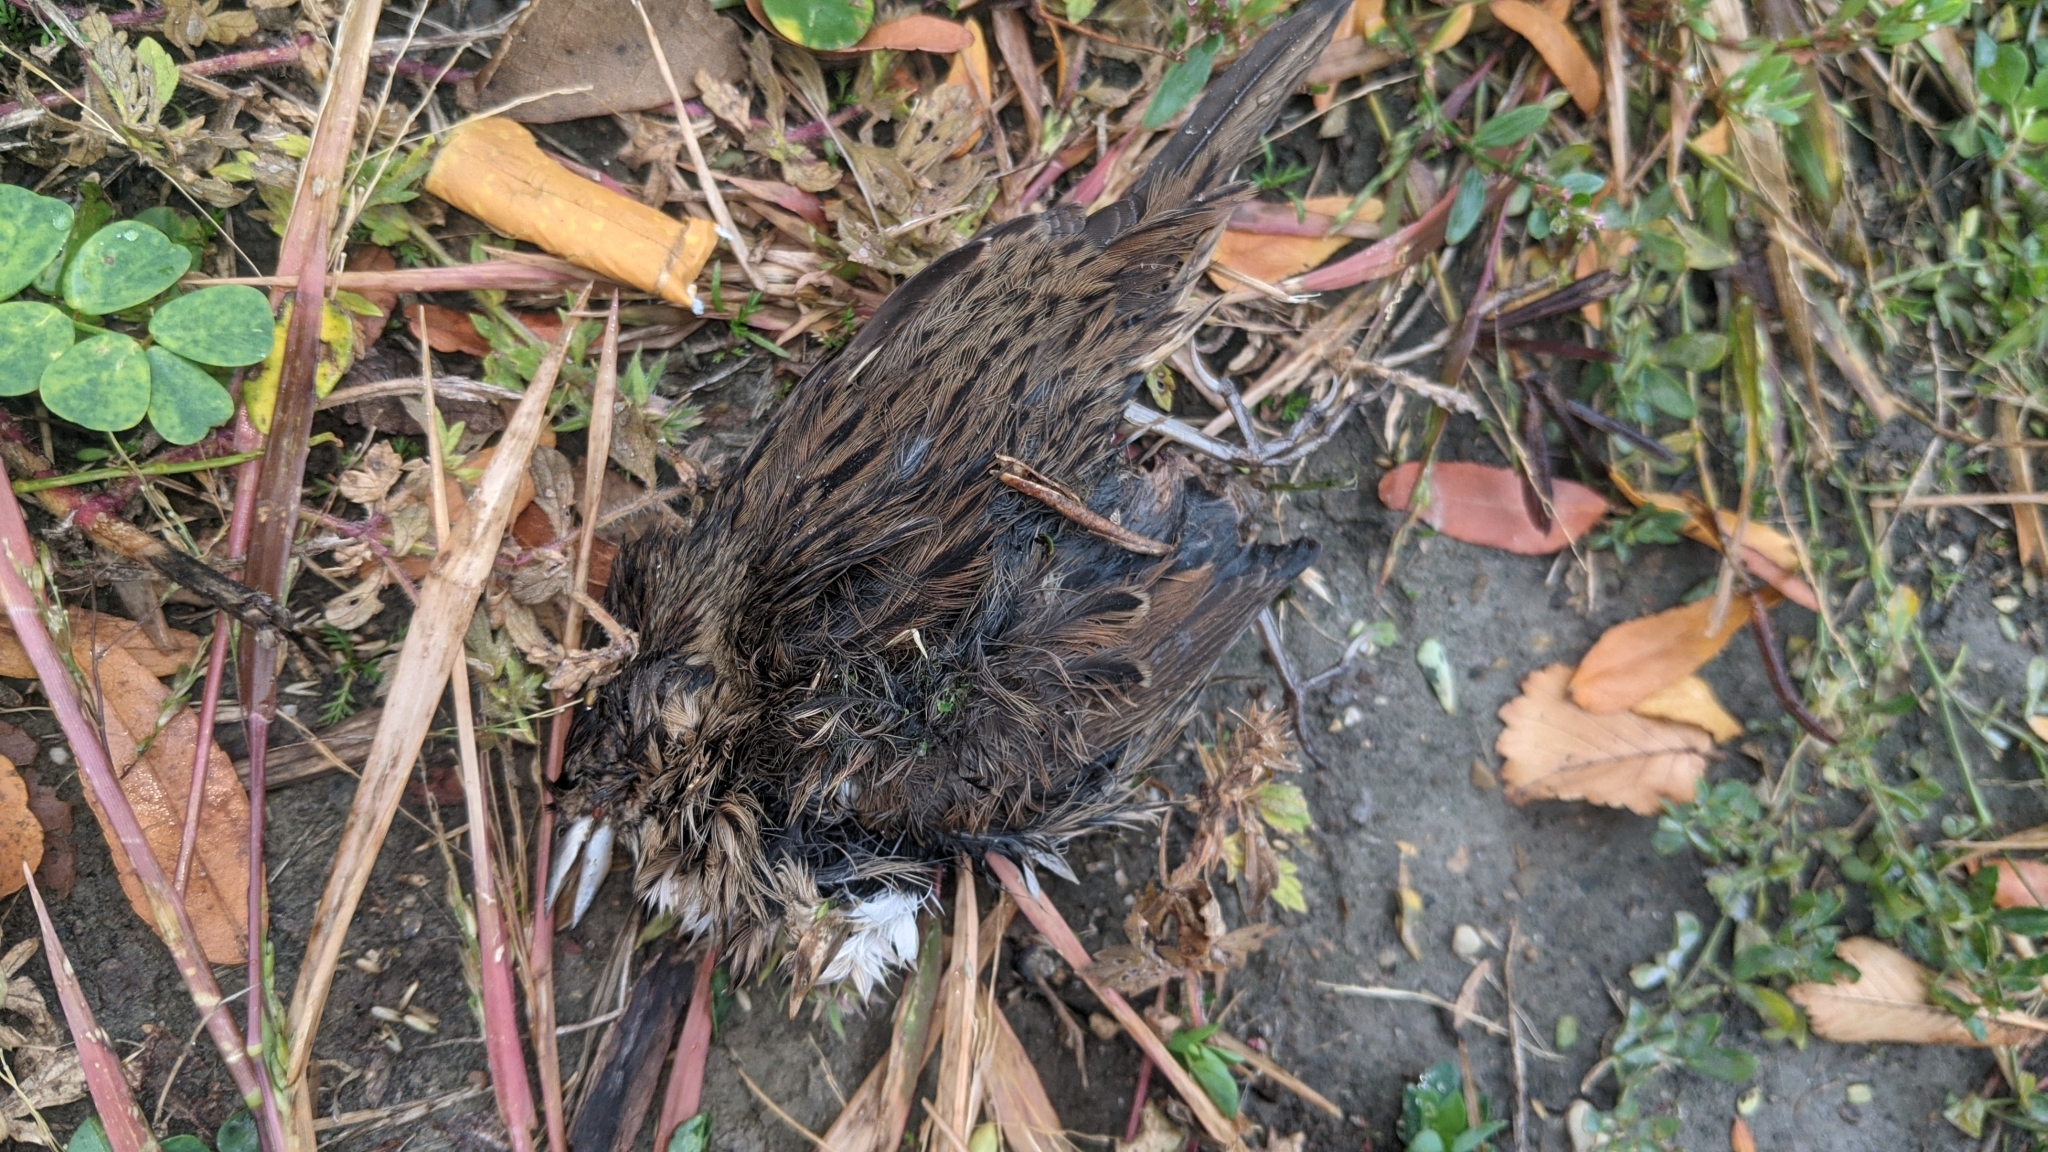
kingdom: Animalia
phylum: Chordata
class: Aves
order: Passeriformes
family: Passerellidae
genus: Melospiza
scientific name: Melospiza lincolnii
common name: Lincoln's sparrow
